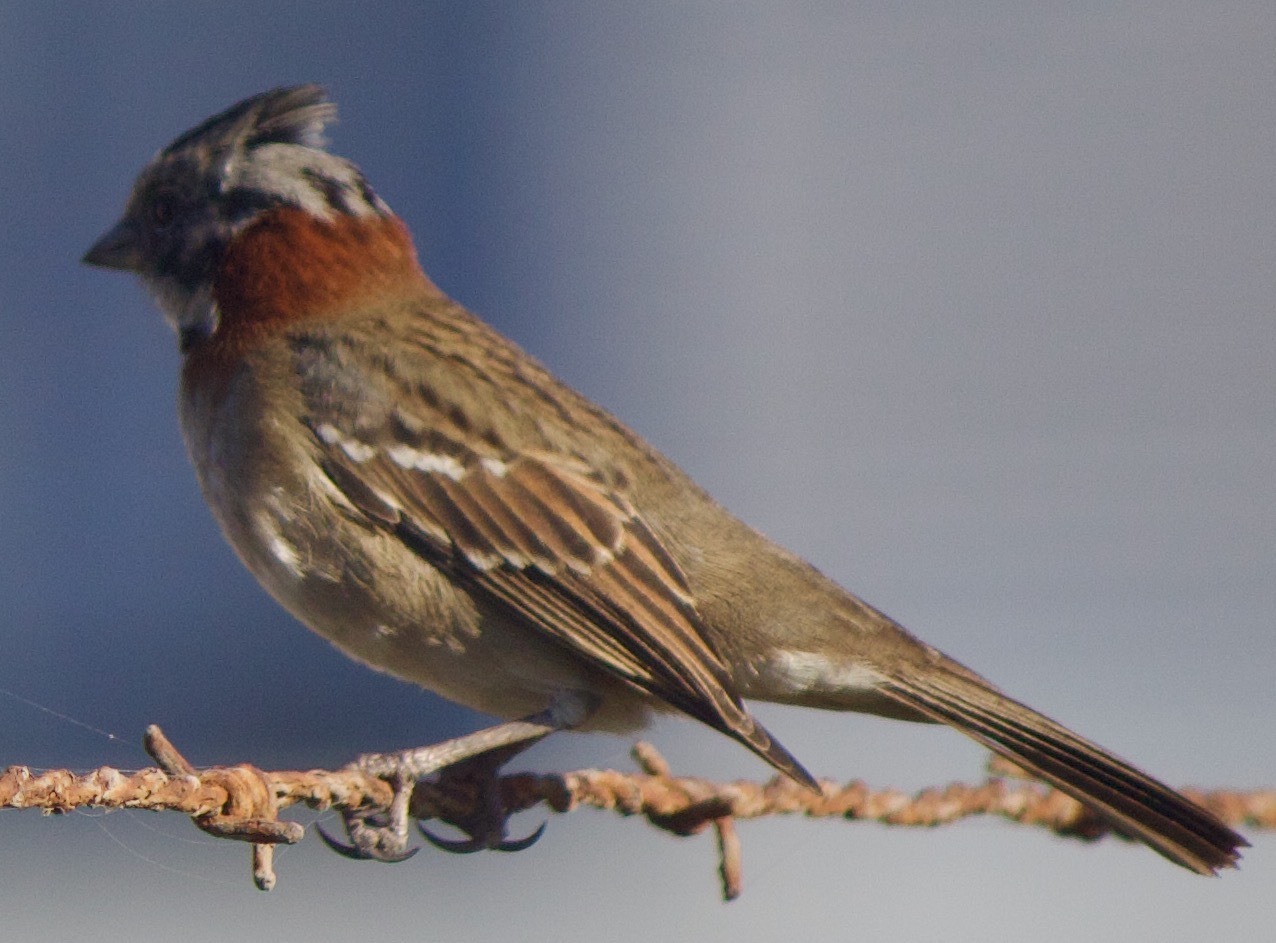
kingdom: Animalia
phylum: Chordata
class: Aves
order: Passeriformes
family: Passerellidae
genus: Zonotrichia
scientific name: Zonotrichia capensis
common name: Rufous-collared sparrow
